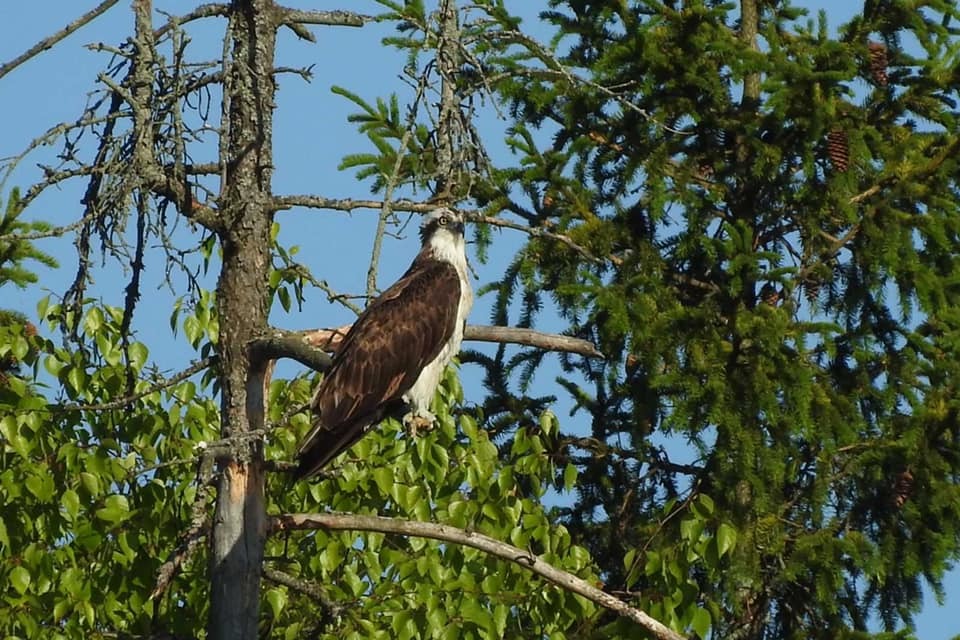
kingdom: Animalia
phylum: Chordata
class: Aves
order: Accipitriformes
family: Pandionidae
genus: Pandion
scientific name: Pandion haliaetus
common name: Osprey
